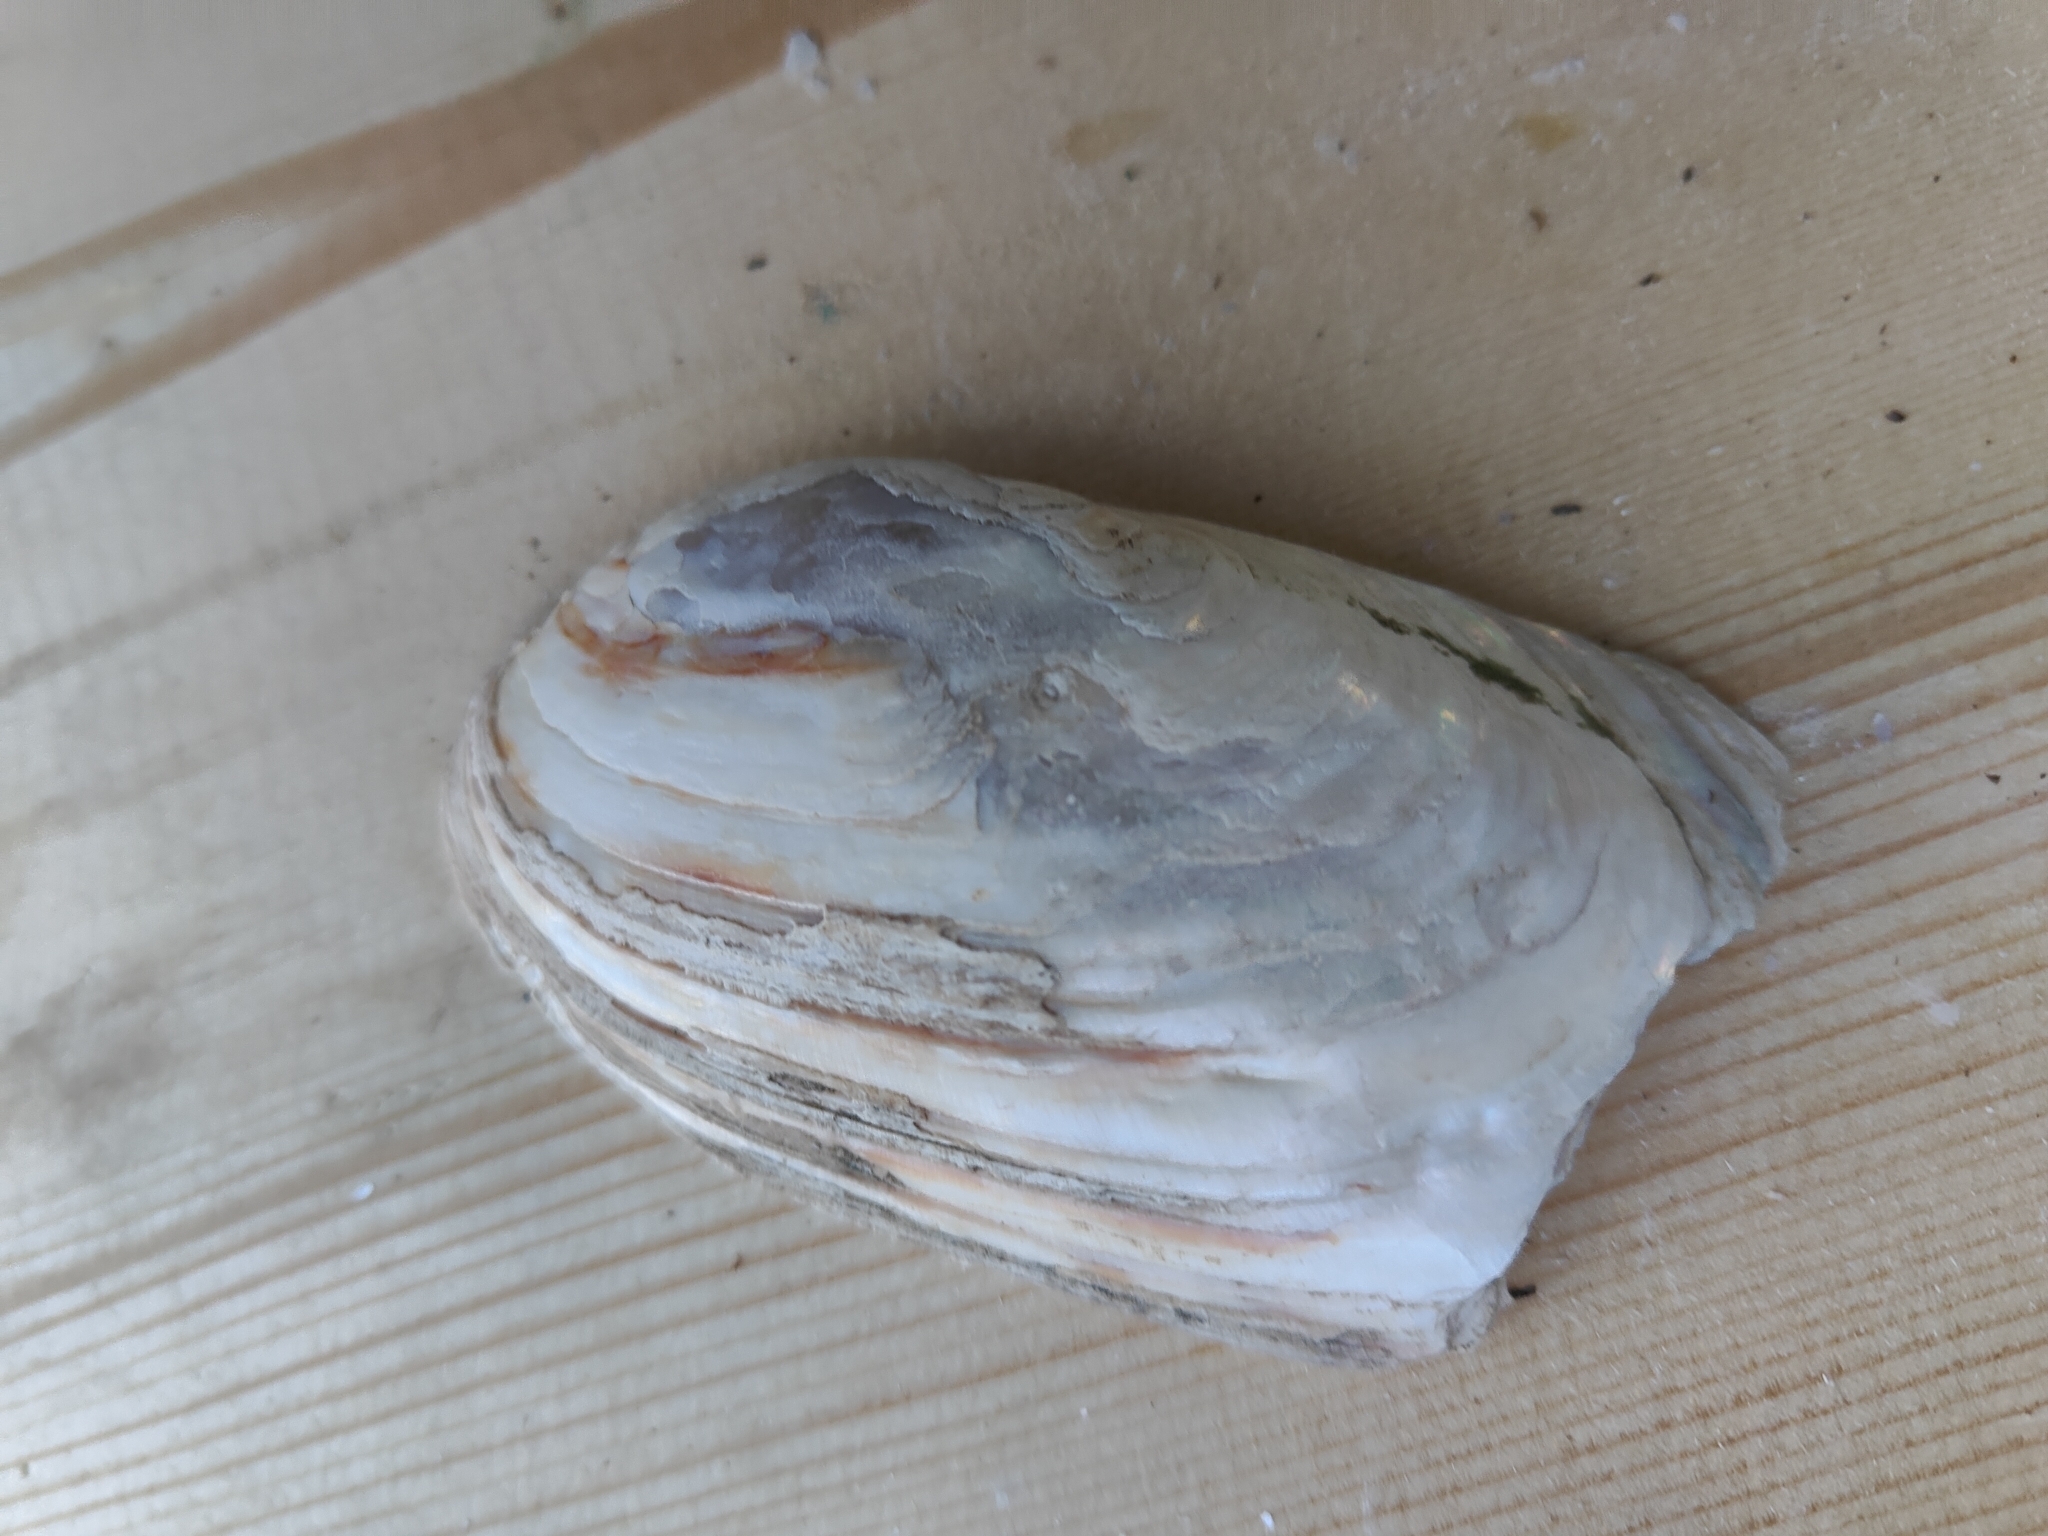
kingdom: Animalia
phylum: Mollusca
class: Bivalvia
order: Unionida
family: Unionidae
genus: Lampsilis
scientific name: Lampsilis siliquoidea
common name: Fatmucket
